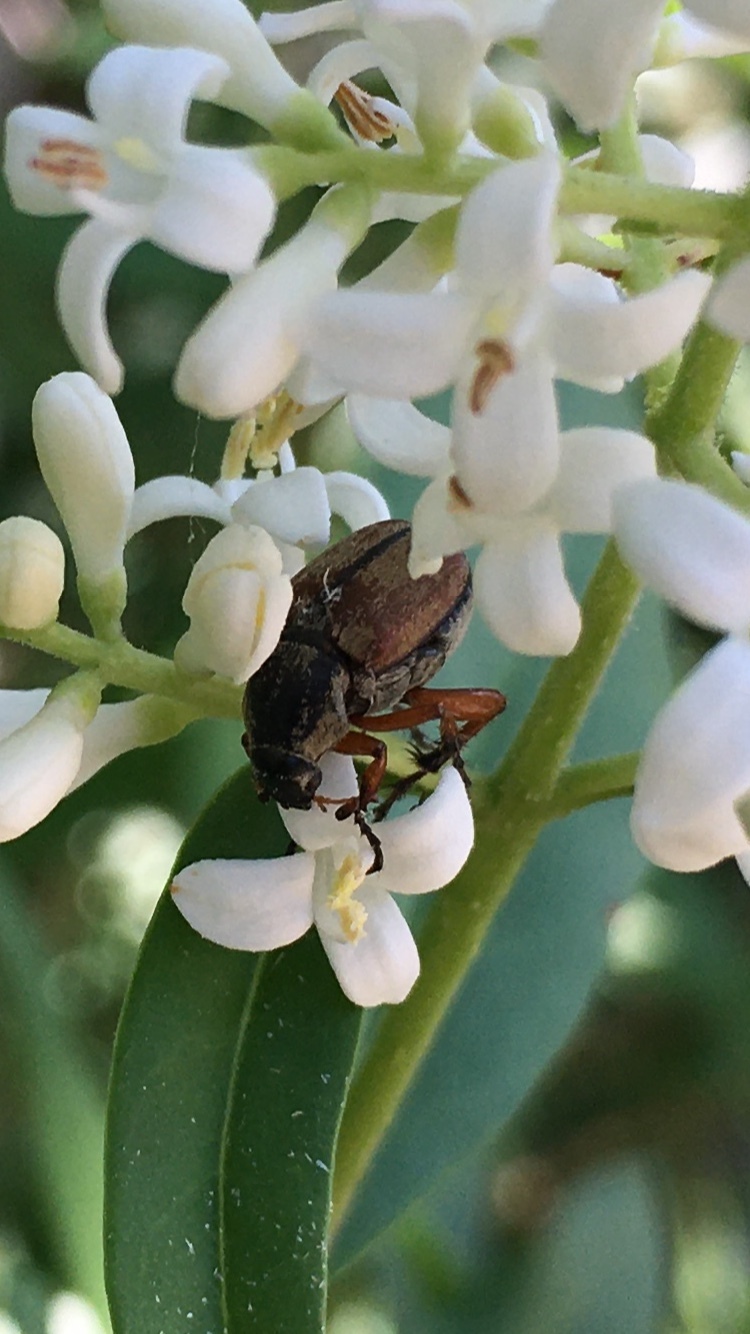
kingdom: Animalia
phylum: Arthropoda
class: Insecta
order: Coleoptera
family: Scarabaeidae
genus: Macrodactylus
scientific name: Macrodactylus subspinosus
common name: American rose chafer
